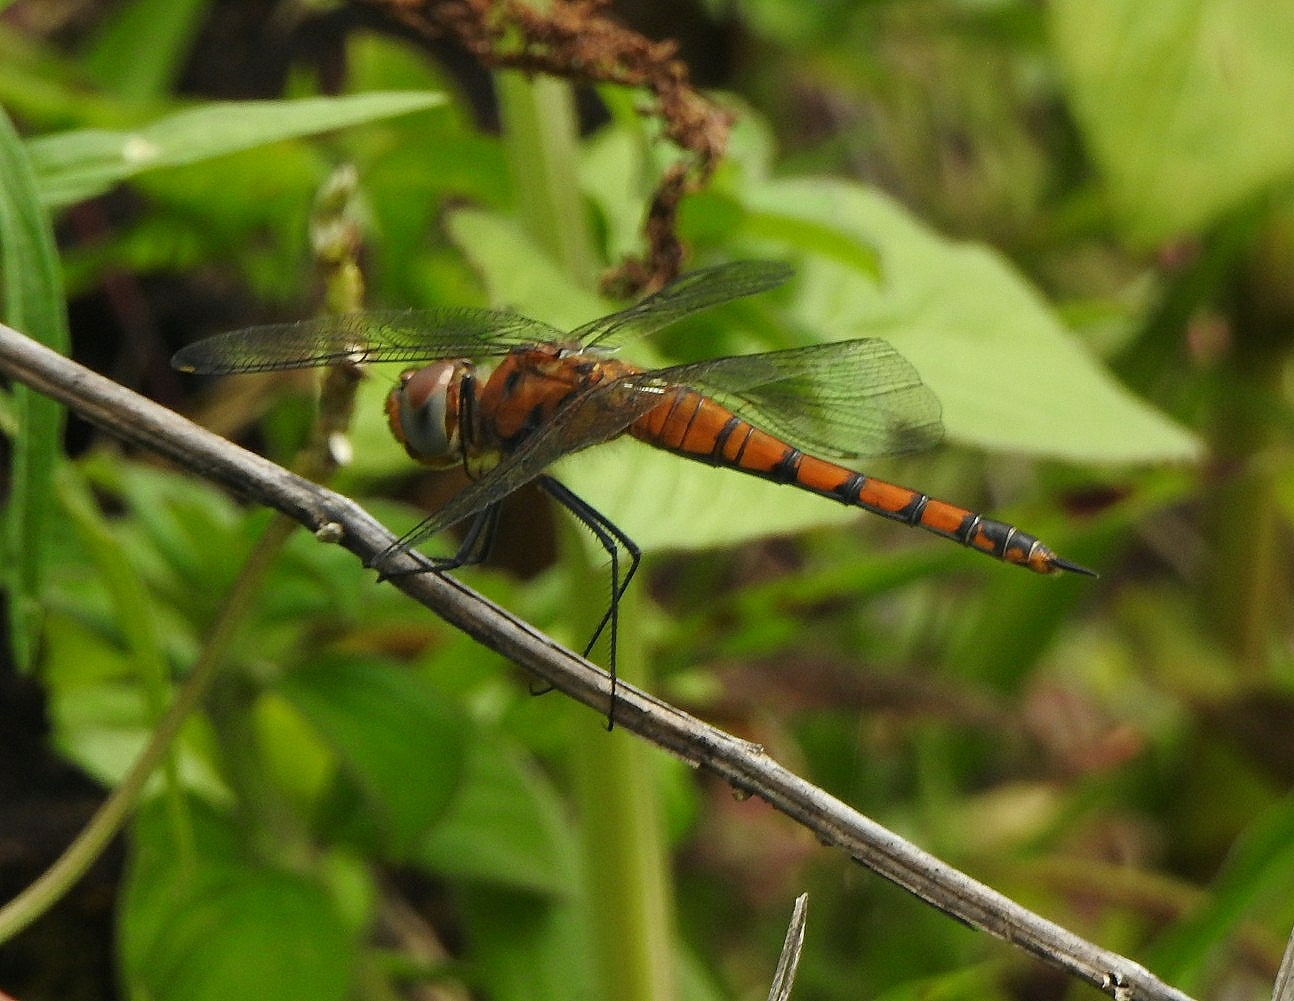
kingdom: Animalia
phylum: Arthropoda
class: Insecta
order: Odonata
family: Libellulidae
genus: Tramea
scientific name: Tramea basilaris
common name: Keyhole glider
